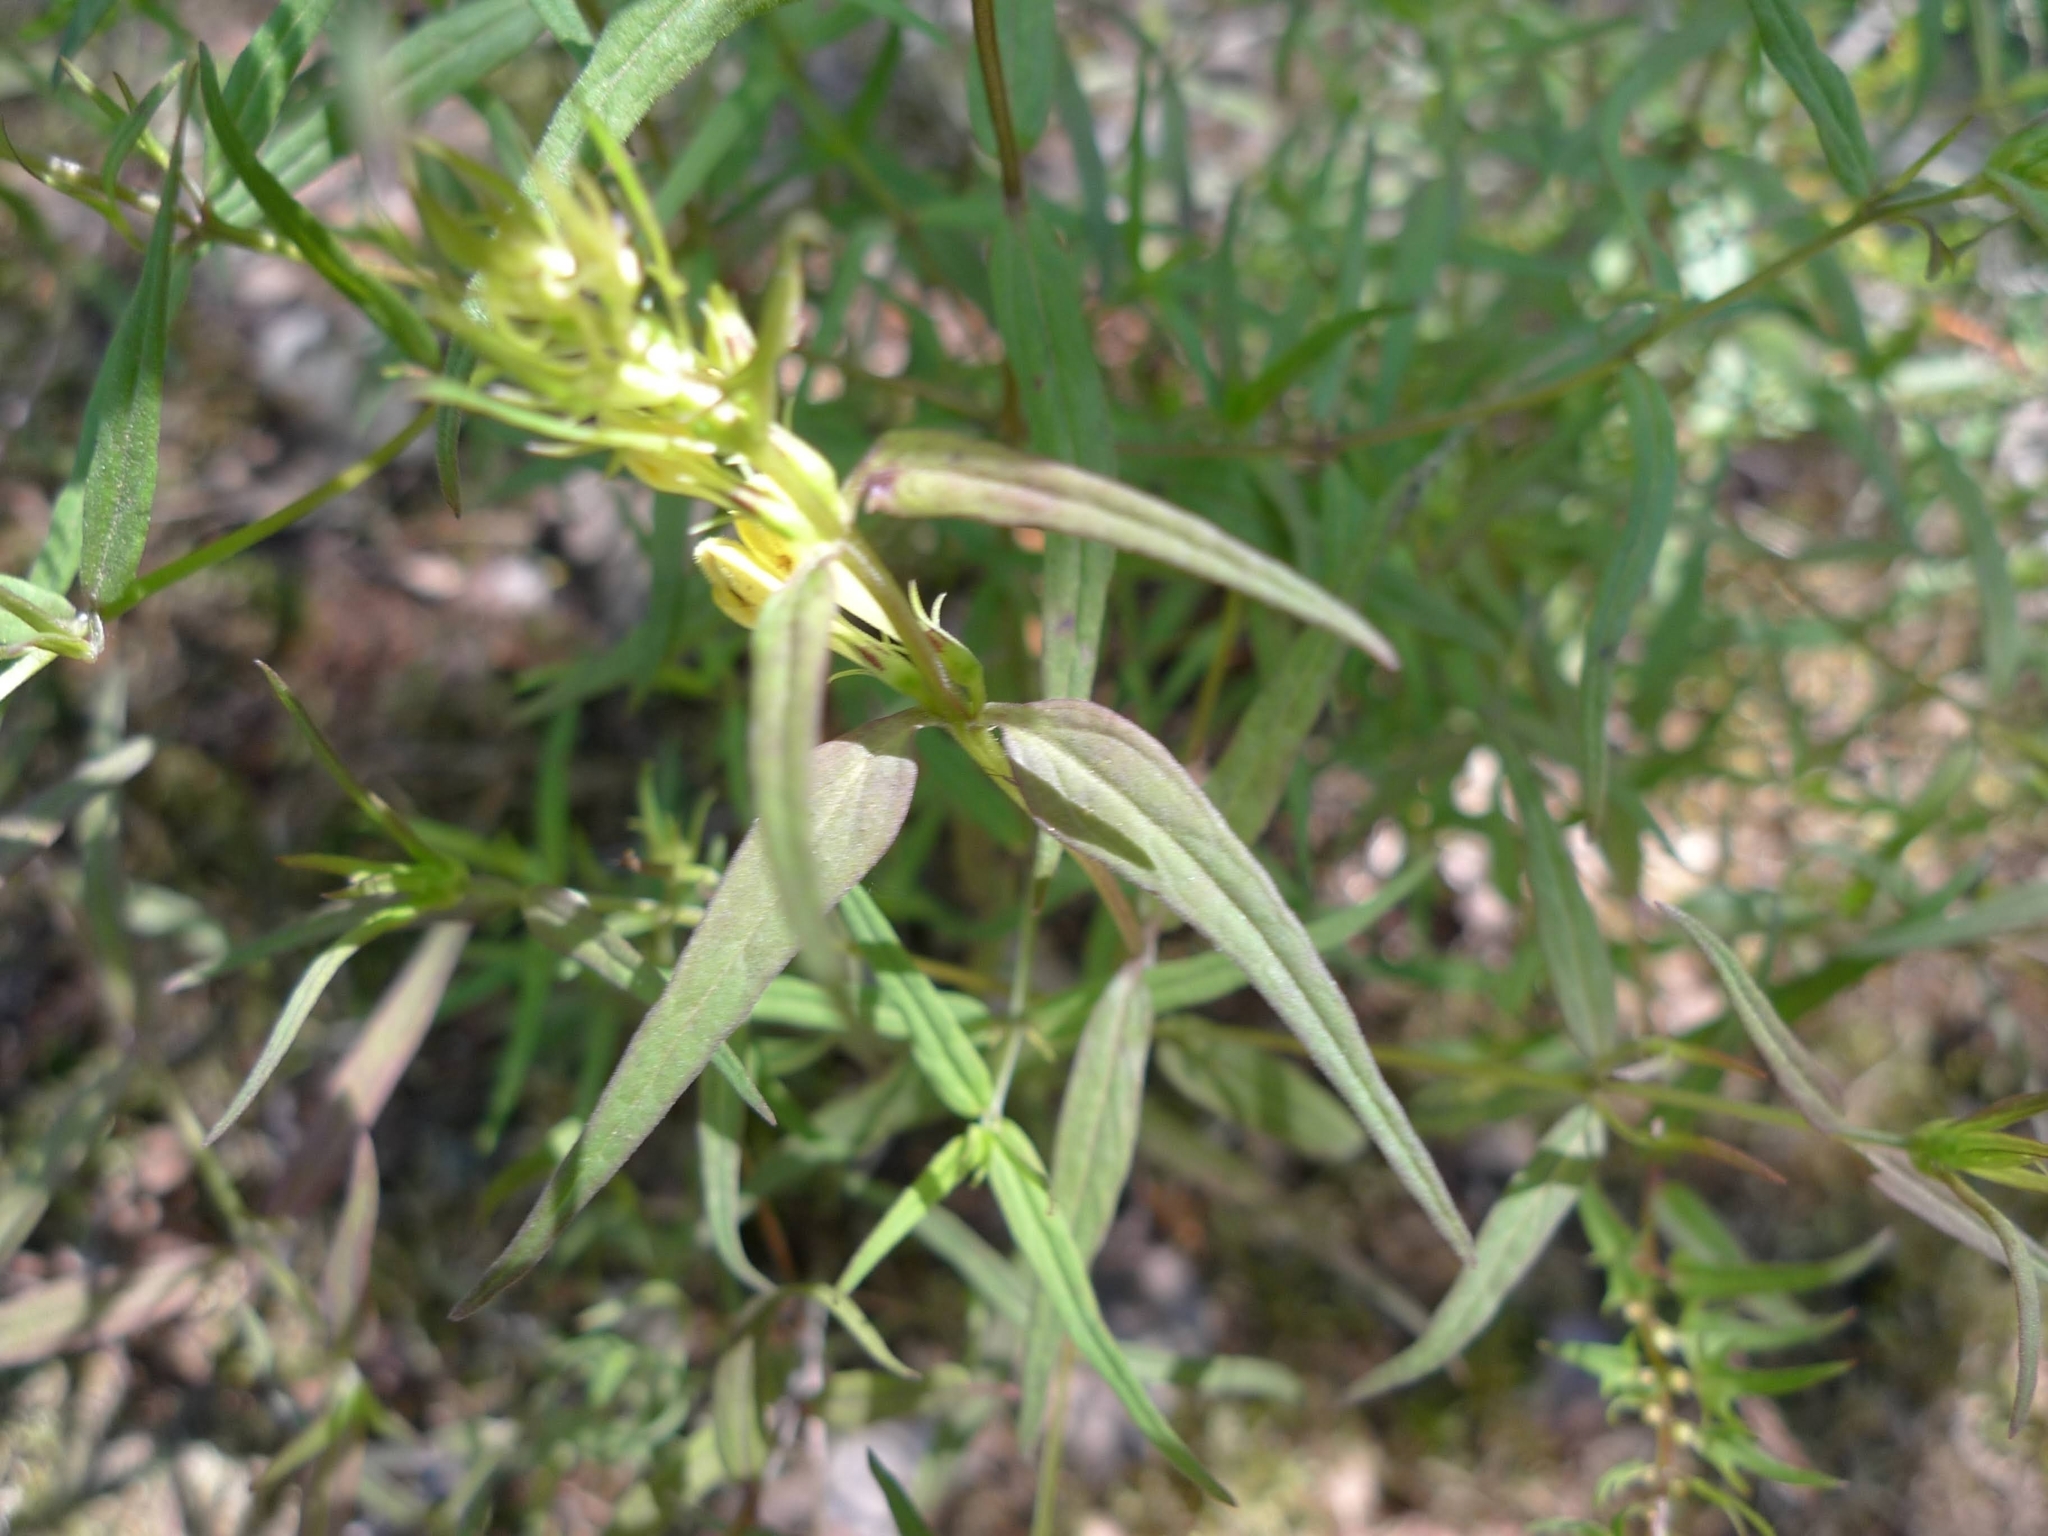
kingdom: Plantae
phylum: Tracheophyta
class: Magnoliopsida
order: Lamiales
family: Orobanchaceae
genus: Melampyrum
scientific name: Melampyrum pratense
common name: Common cow-wheat
